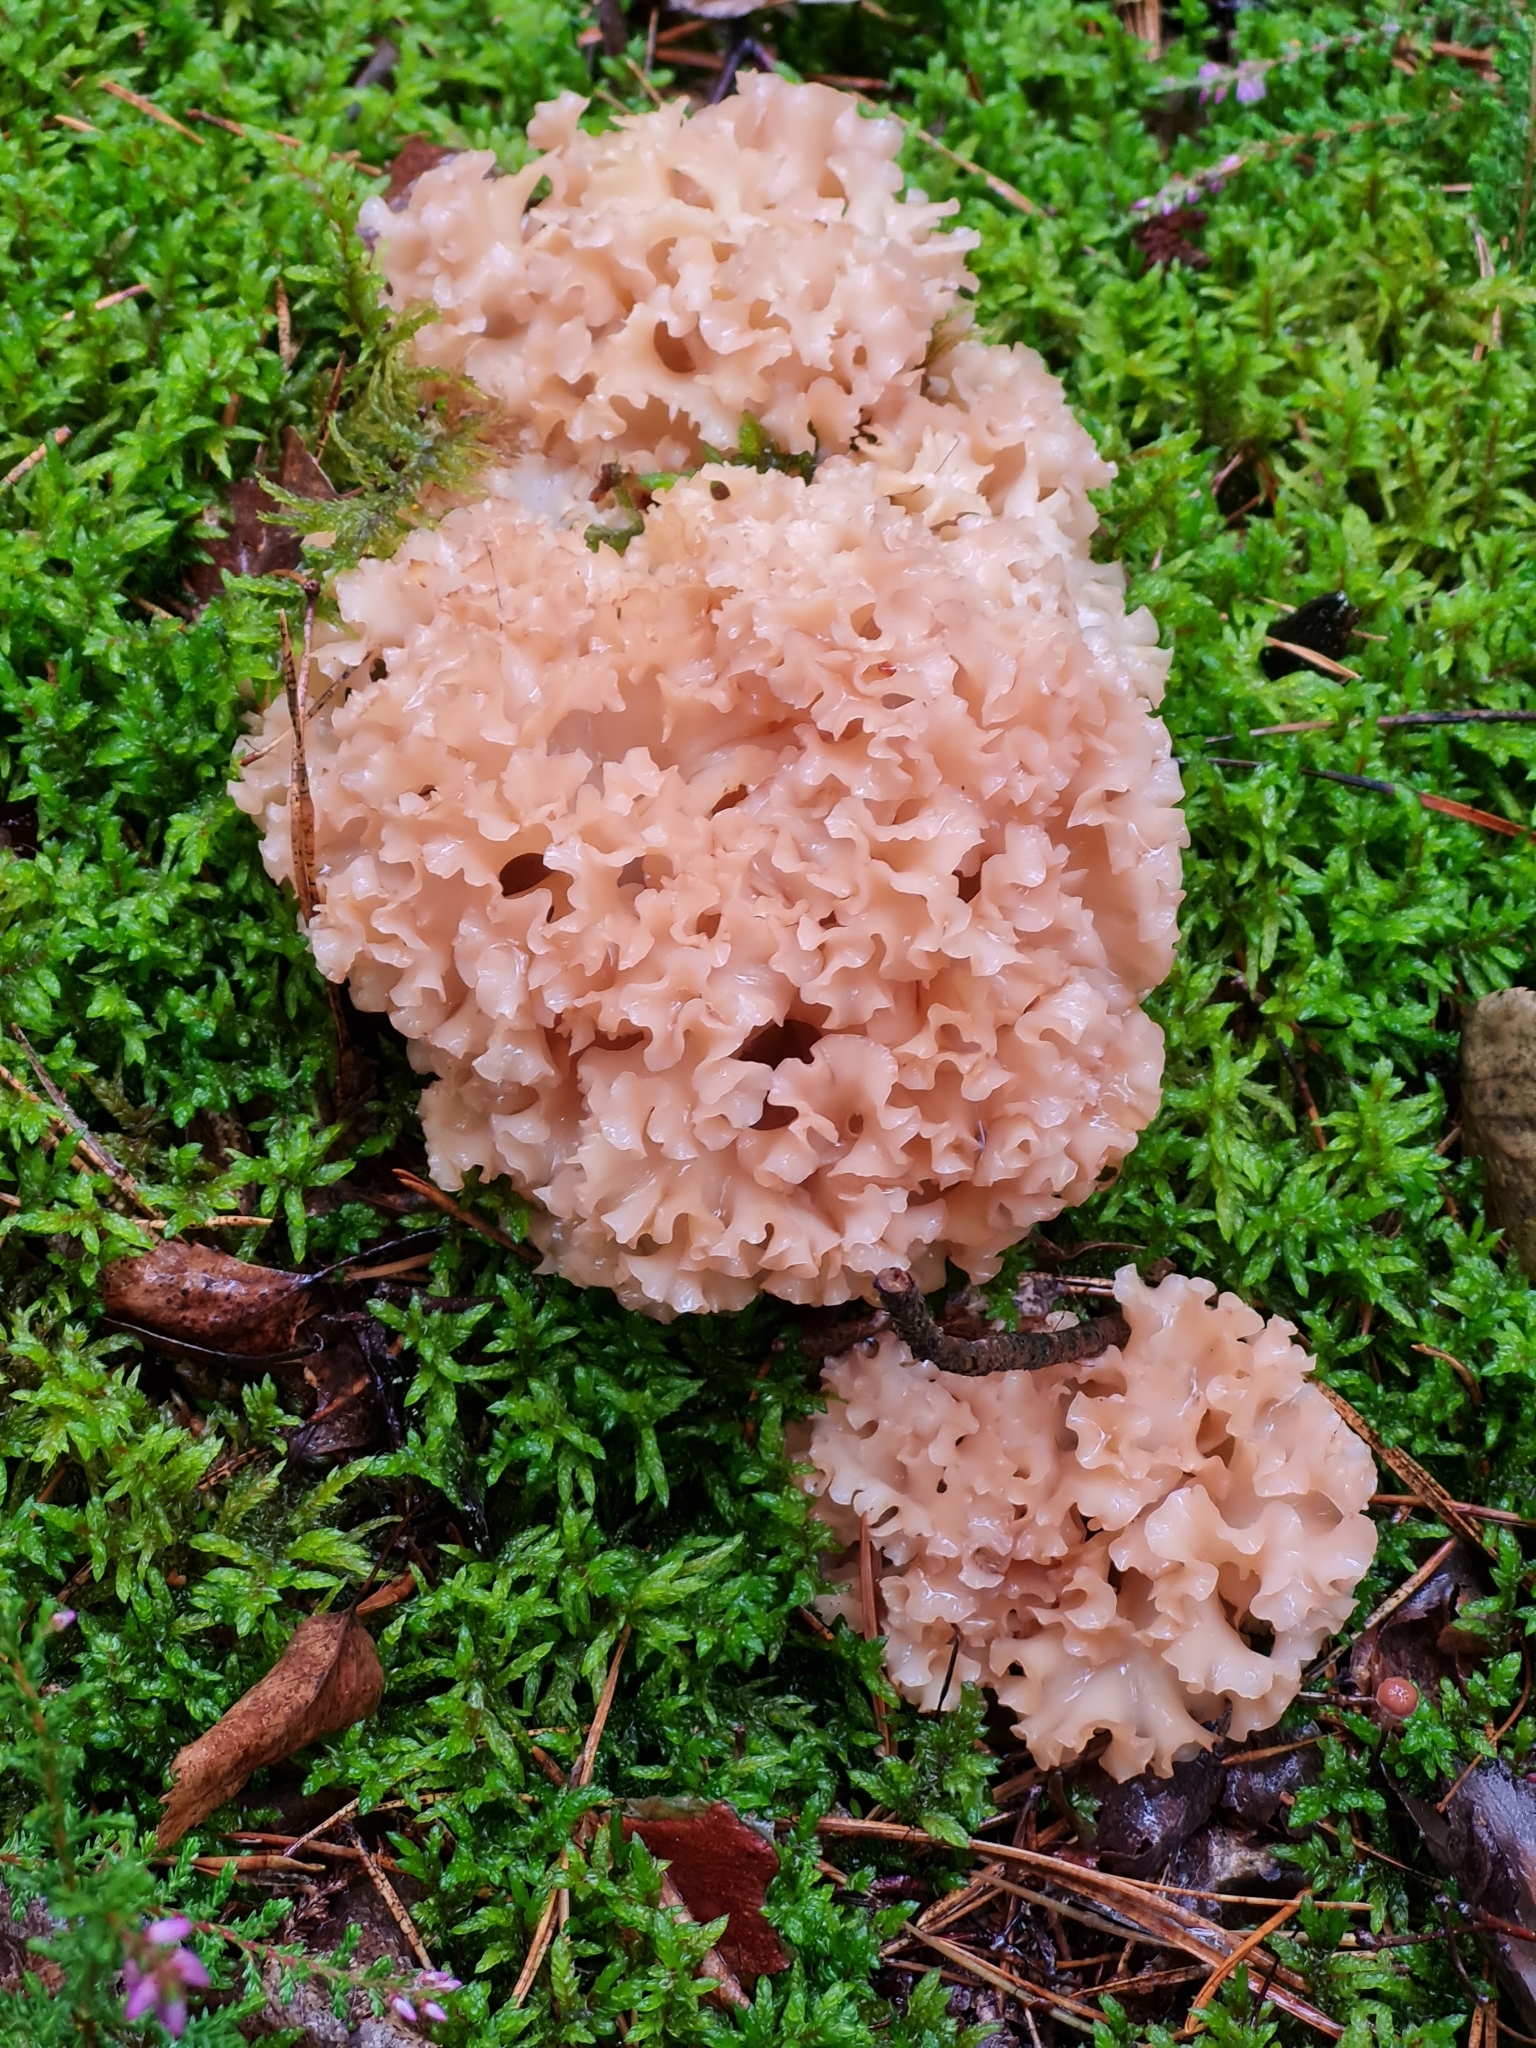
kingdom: Fungi
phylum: Basidiomycota
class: Agaricomycetes
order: Polyporales
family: Sparassidaceae
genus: Sparassis
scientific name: Sparassis crispa
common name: Brain fungus
